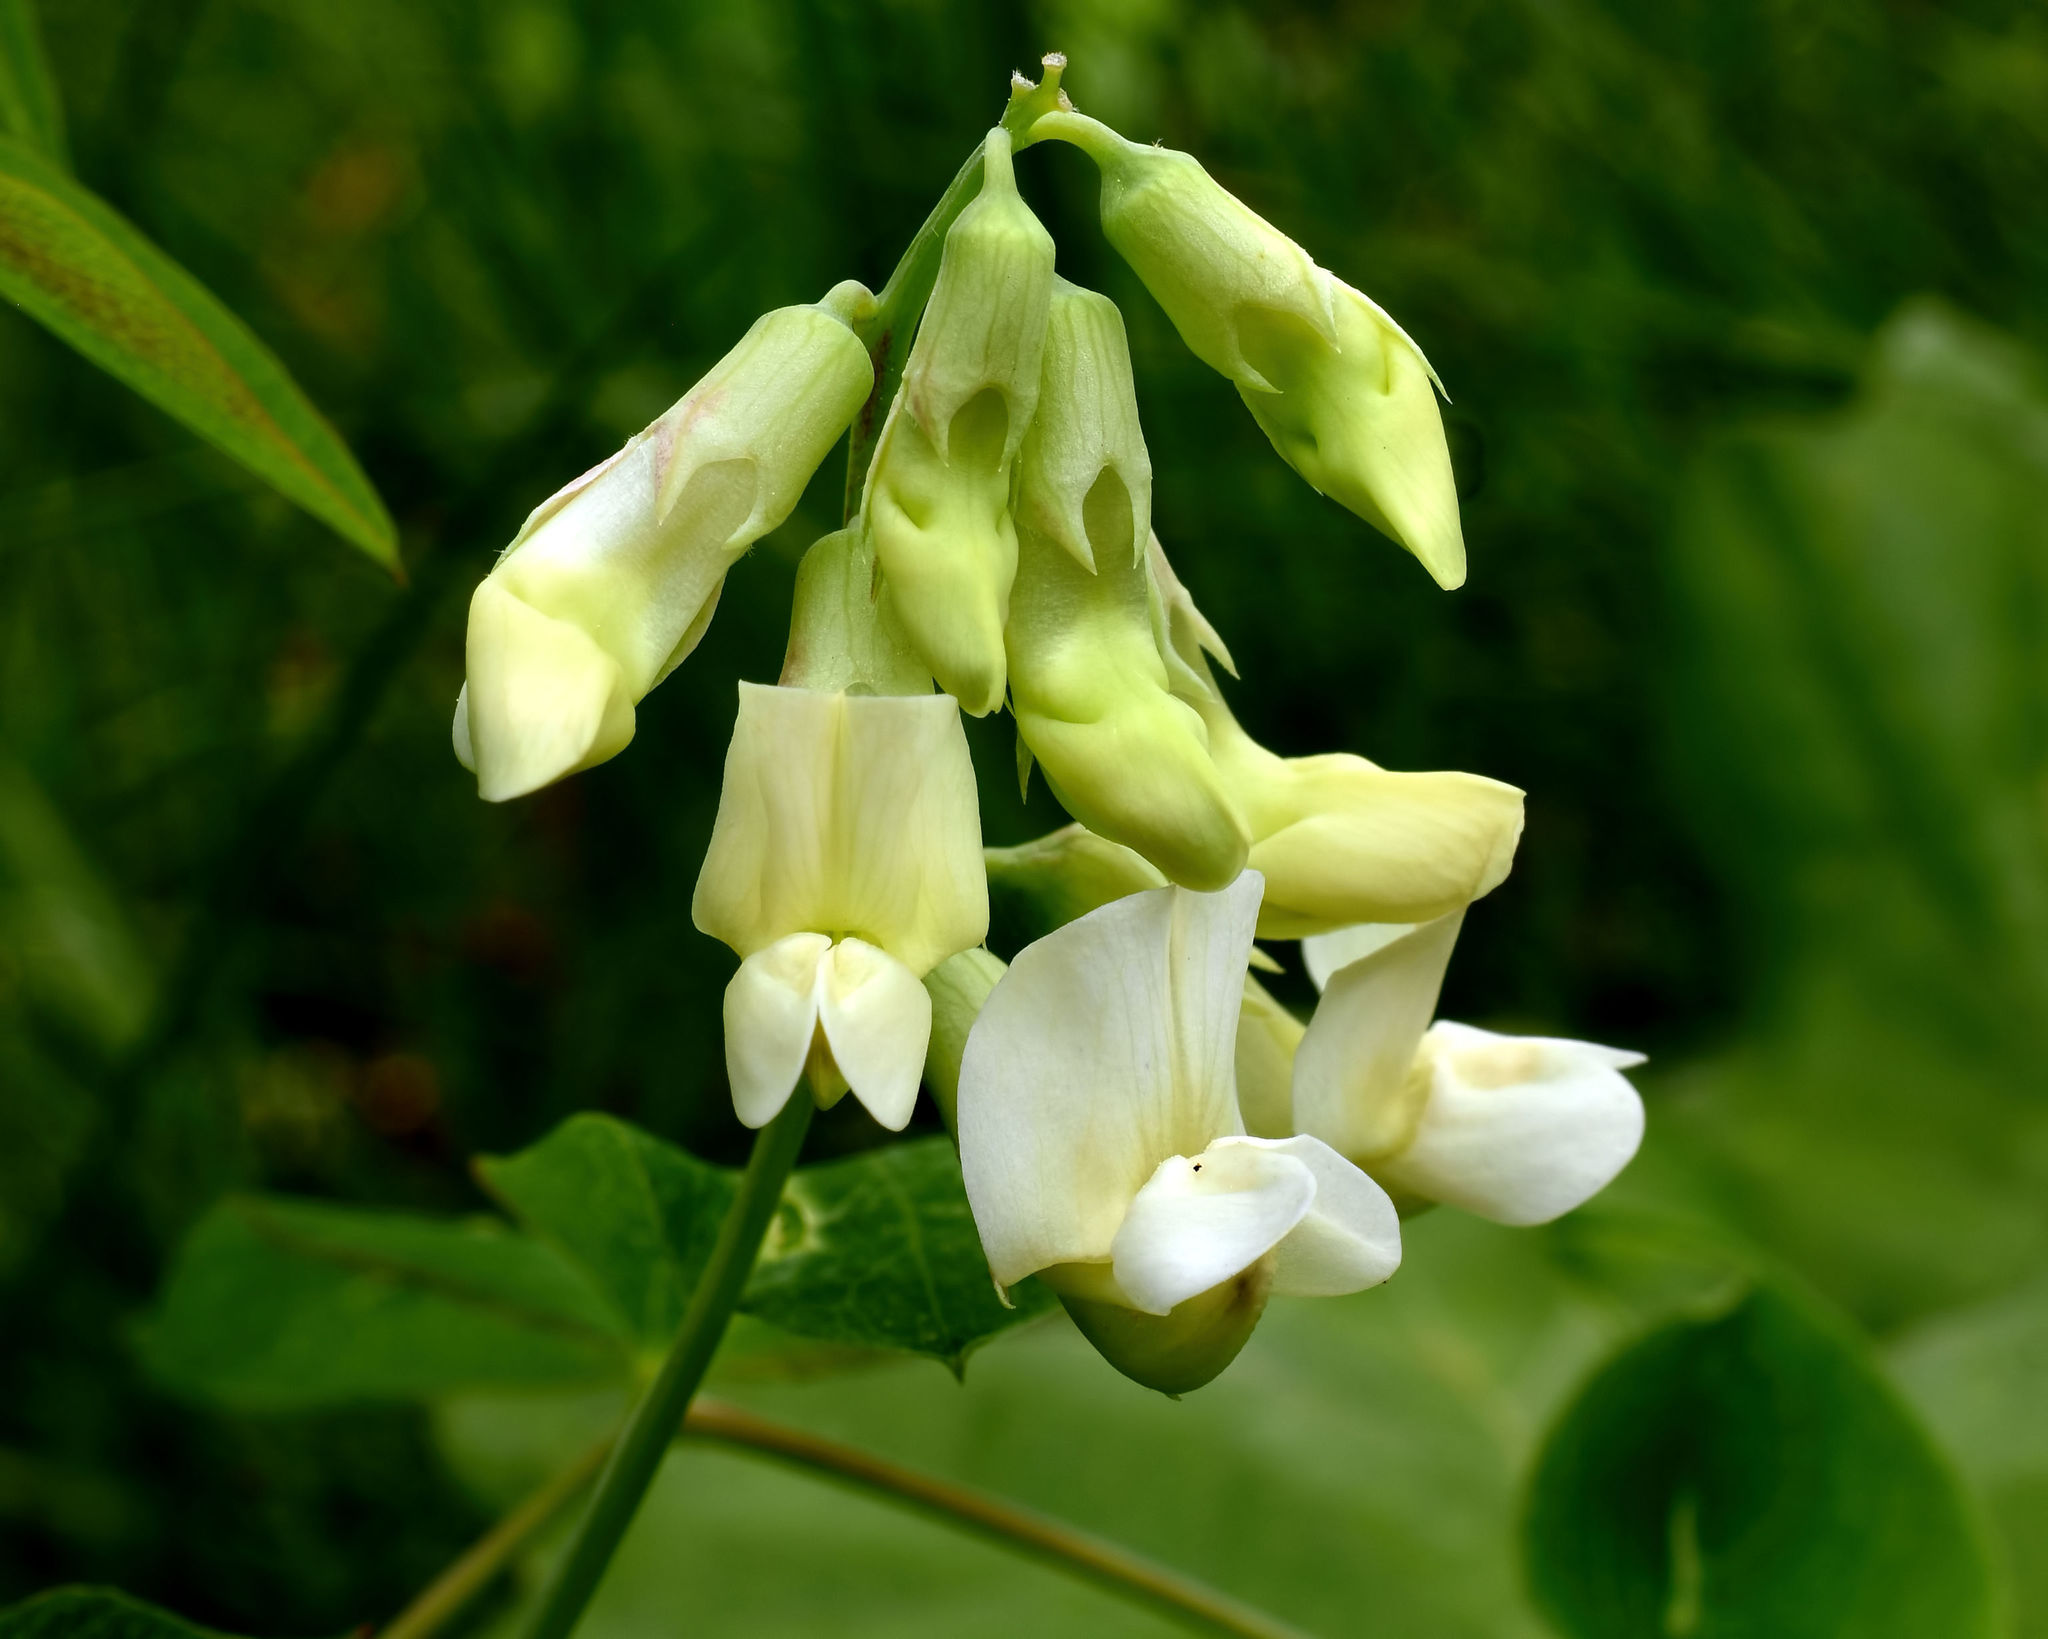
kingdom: Plantae
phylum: Tracheophyta
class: Magnoliopsida
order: Fabales
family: Fabaceae
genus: Lathyrus
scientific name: Lathyrus ochroleucus
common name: Pale vetchling
